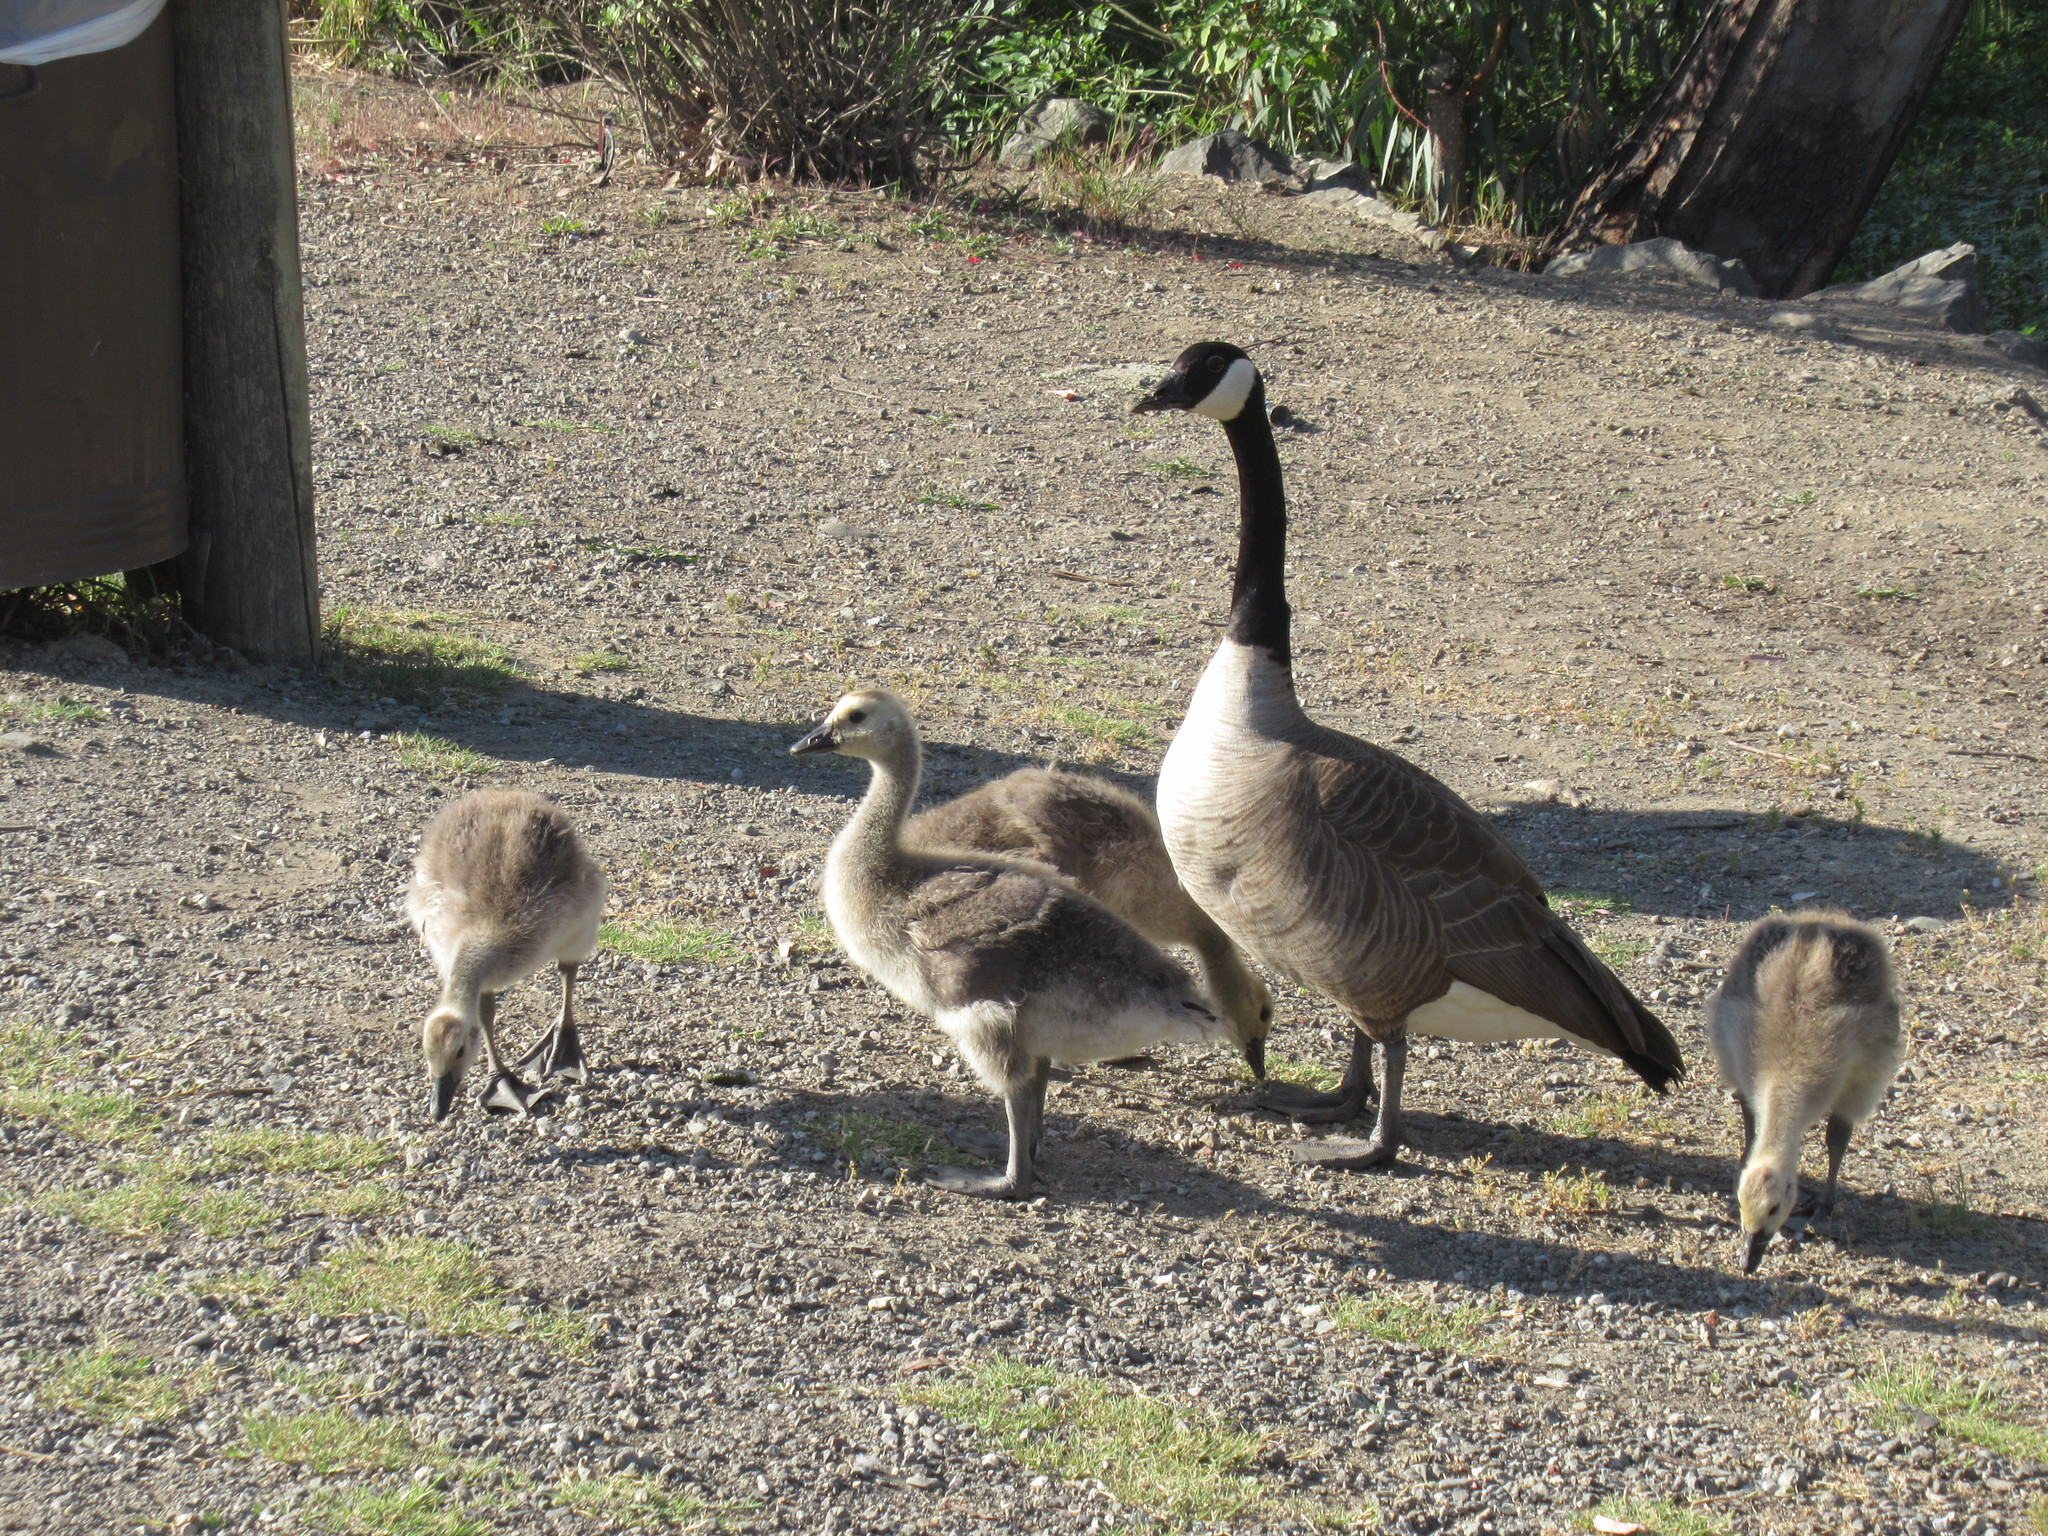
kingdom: Animalia
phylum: Chordata
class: Aves
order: Anseriformes
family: Anatidae
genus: Branta
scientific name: Branta canadensis
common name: Canada goose
